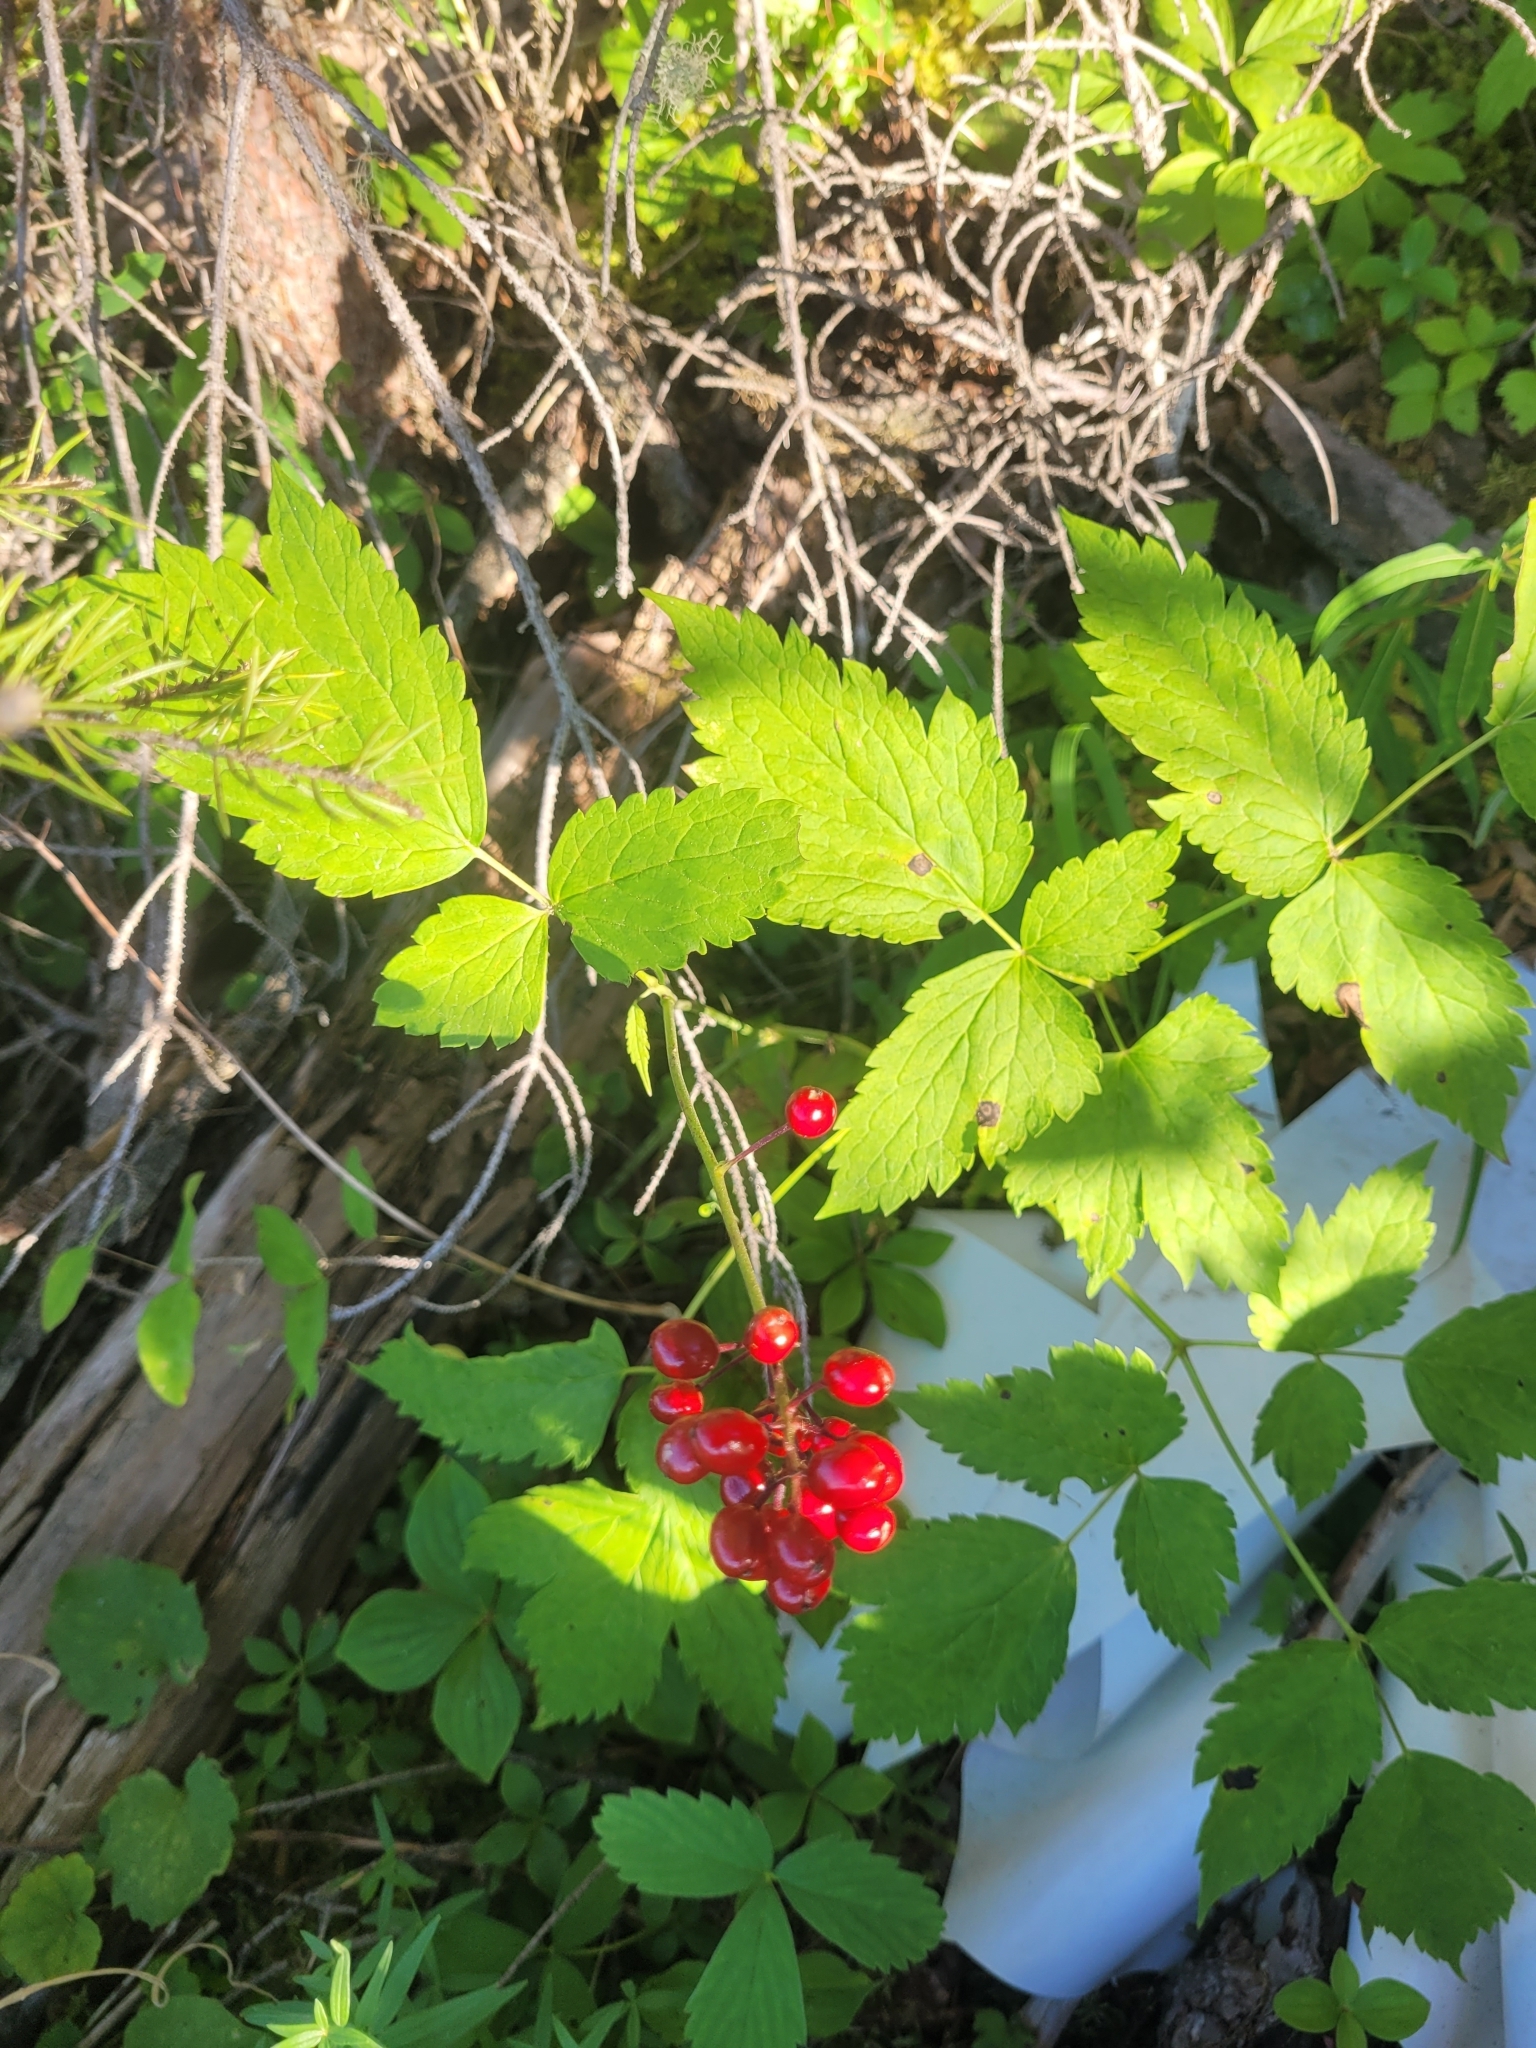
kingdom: Plantae
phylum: Tracheophyta
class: Magnoliopsida
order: Ranunculales
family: Ranunculaceae
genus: Actaea
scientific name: Actaea rubra
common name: Red baneberry
